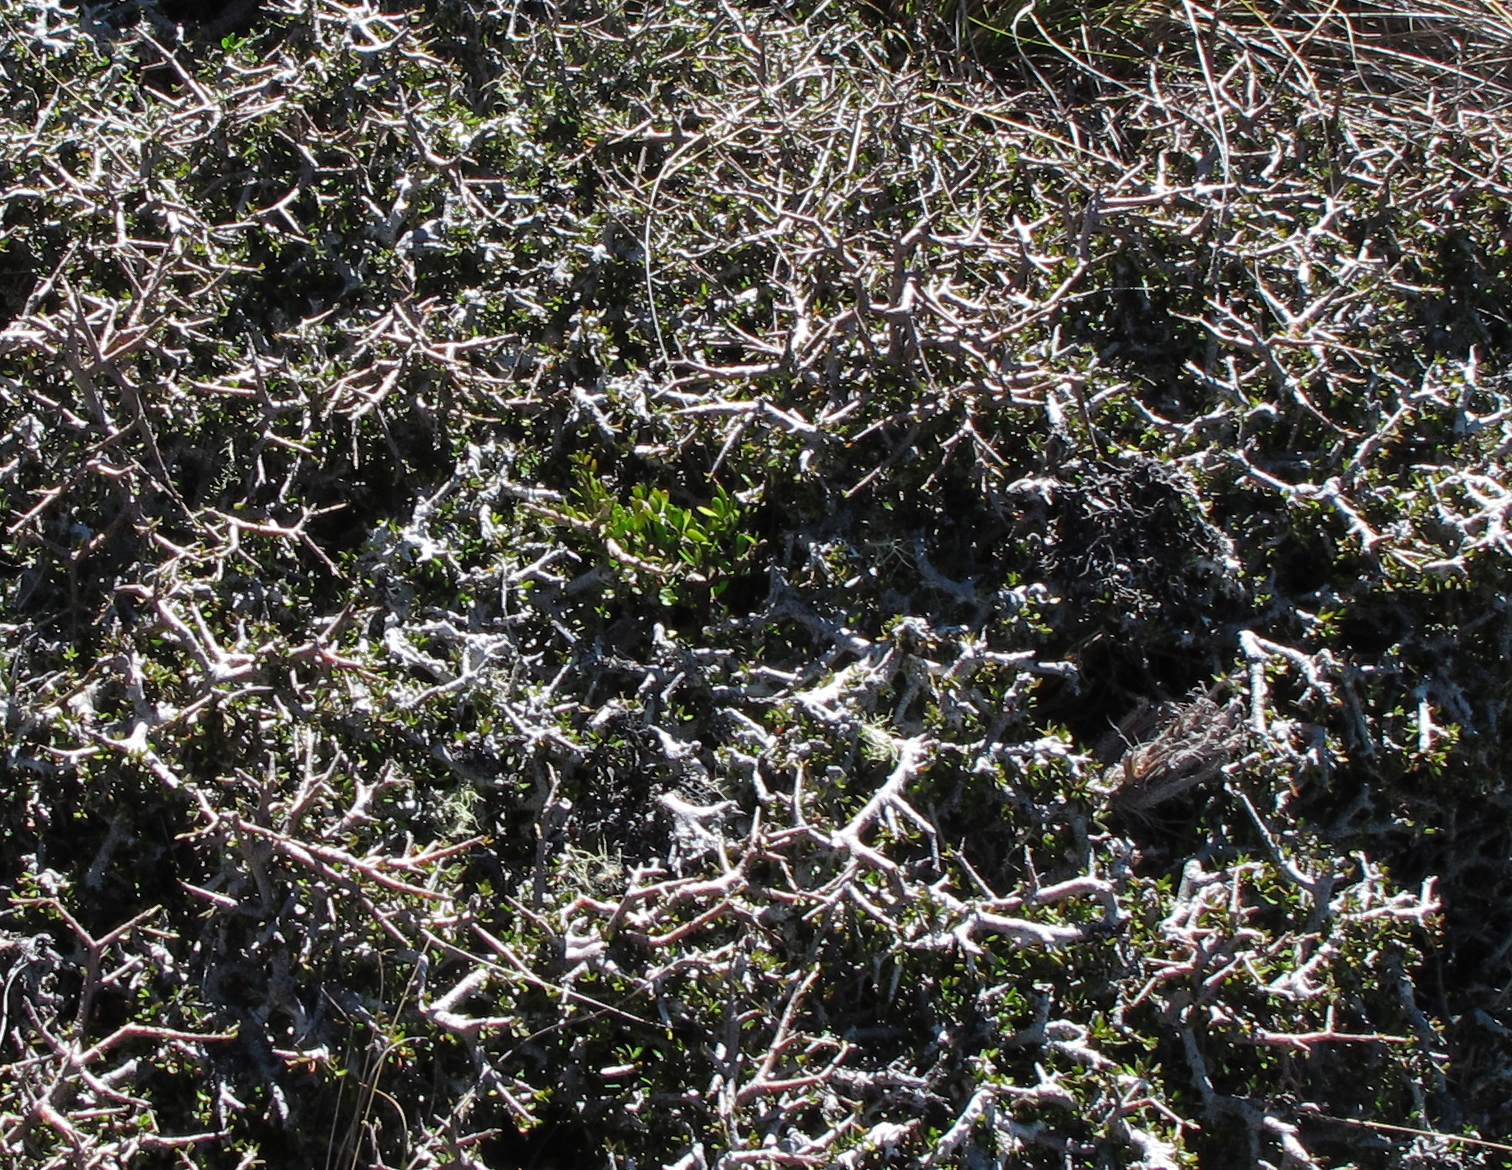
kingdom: Plantae
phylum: Tracheophyta
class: Magnoliopsida
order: Malpighiales
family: Violaceae
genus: Melicytus
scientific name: Melicytus alpinus
